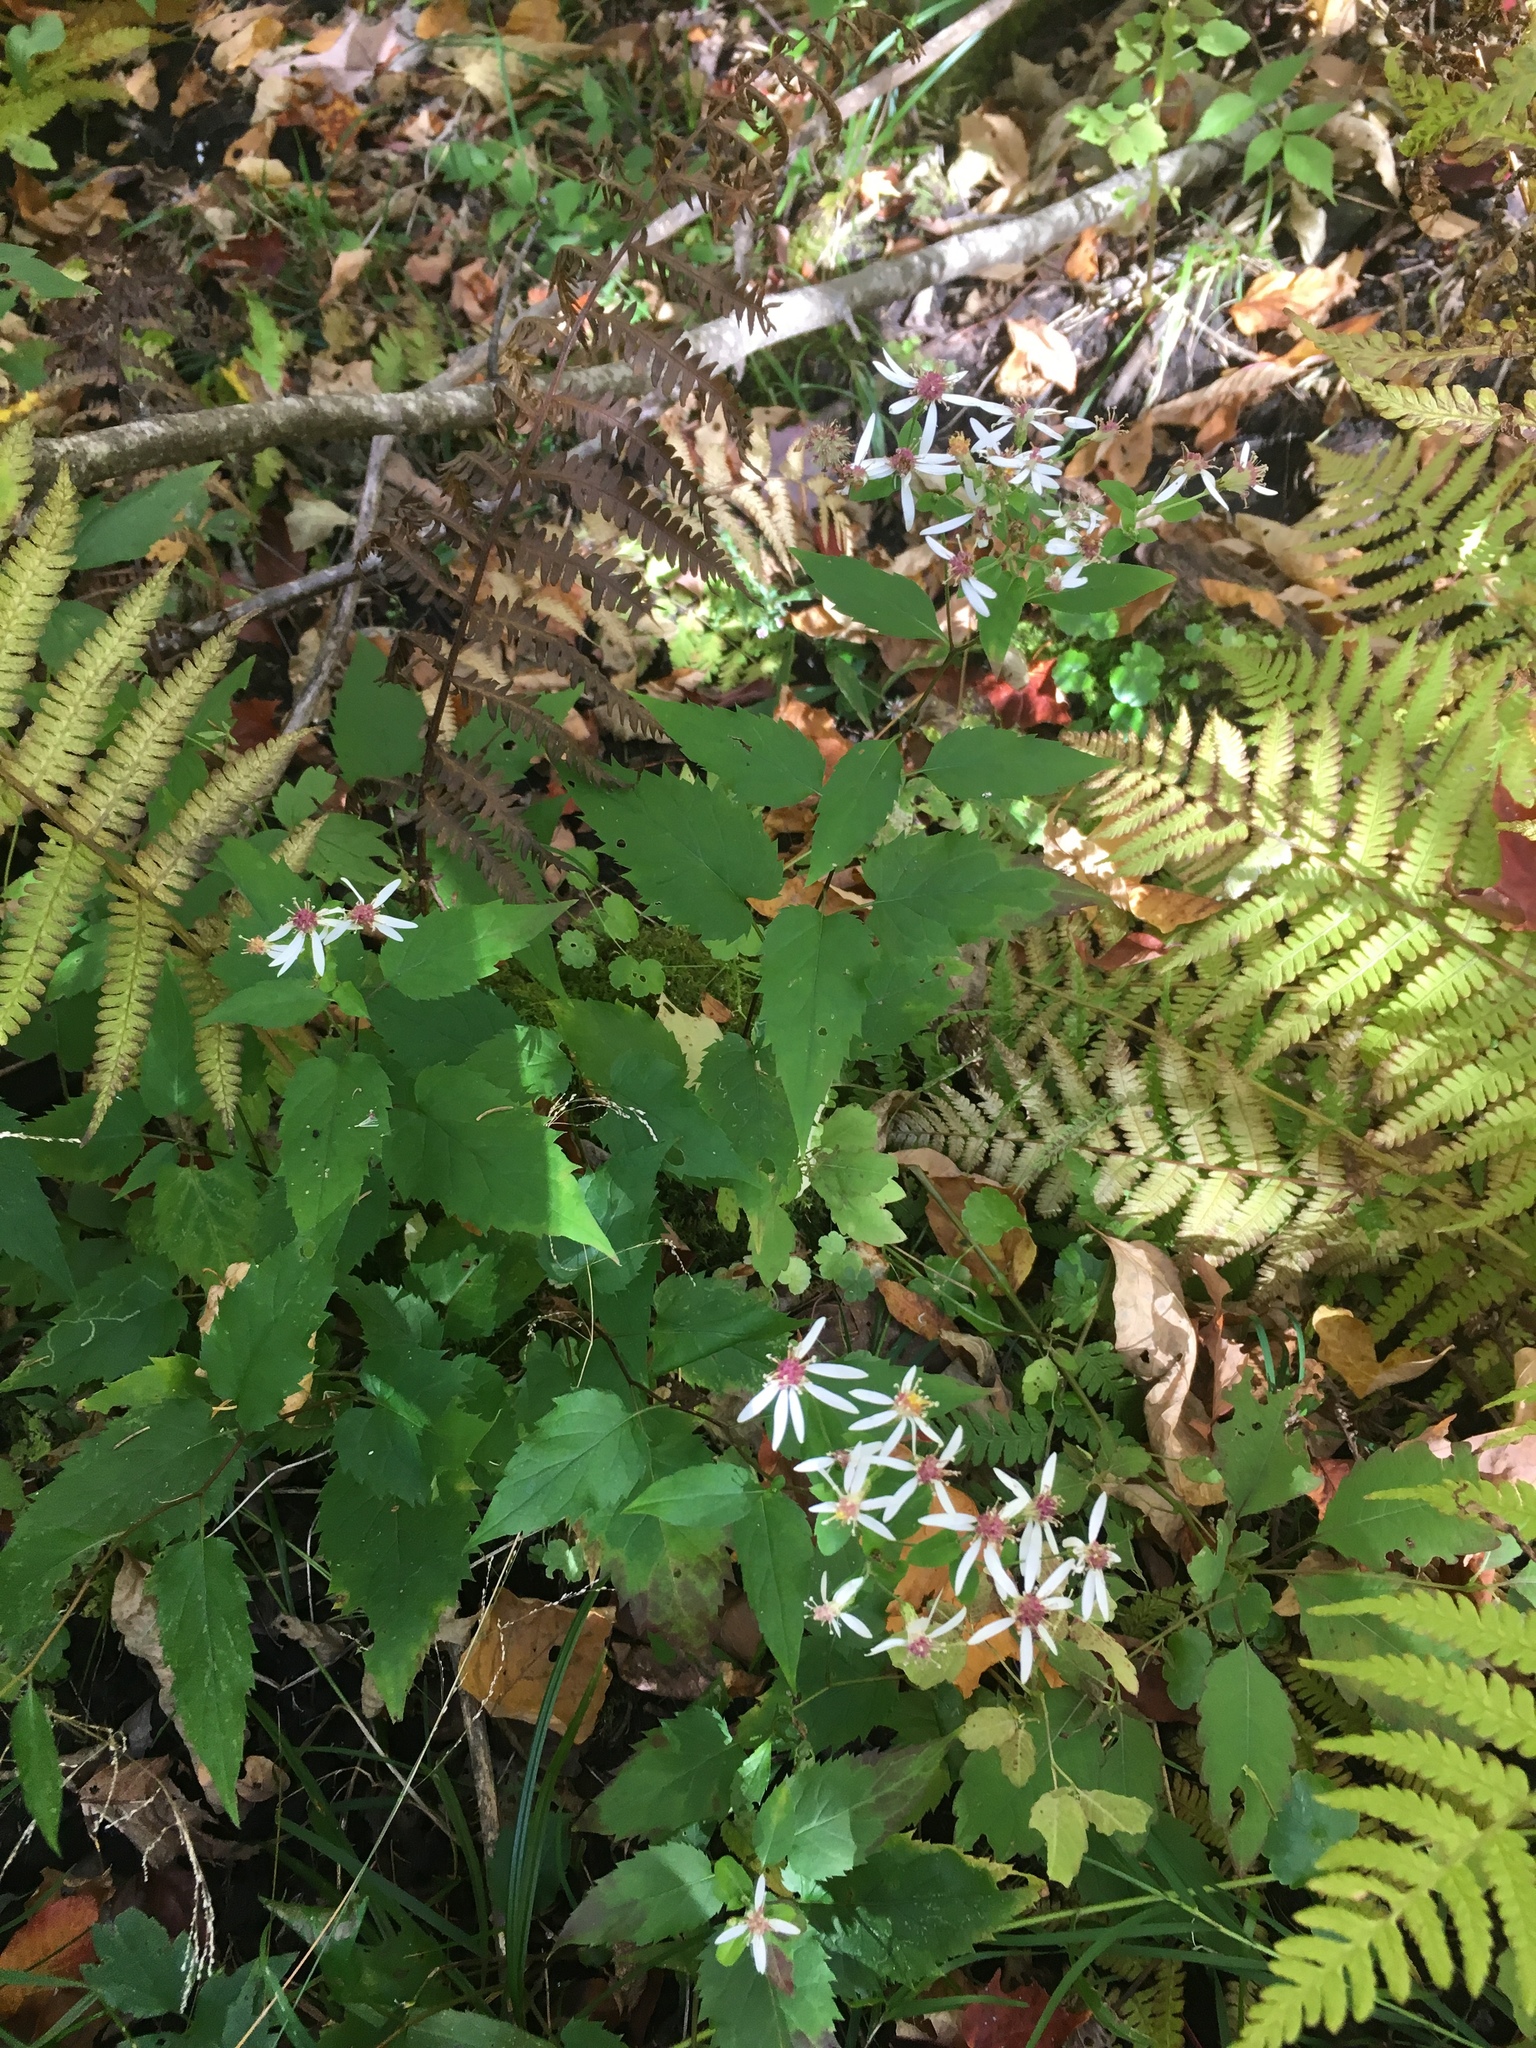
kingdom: Plantae
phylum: Tracheophyta
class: Magnoliopsida
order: Asterales
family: Asteraceae
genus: Eurybia
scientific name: Eurybia divaricata
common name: White wood aster
